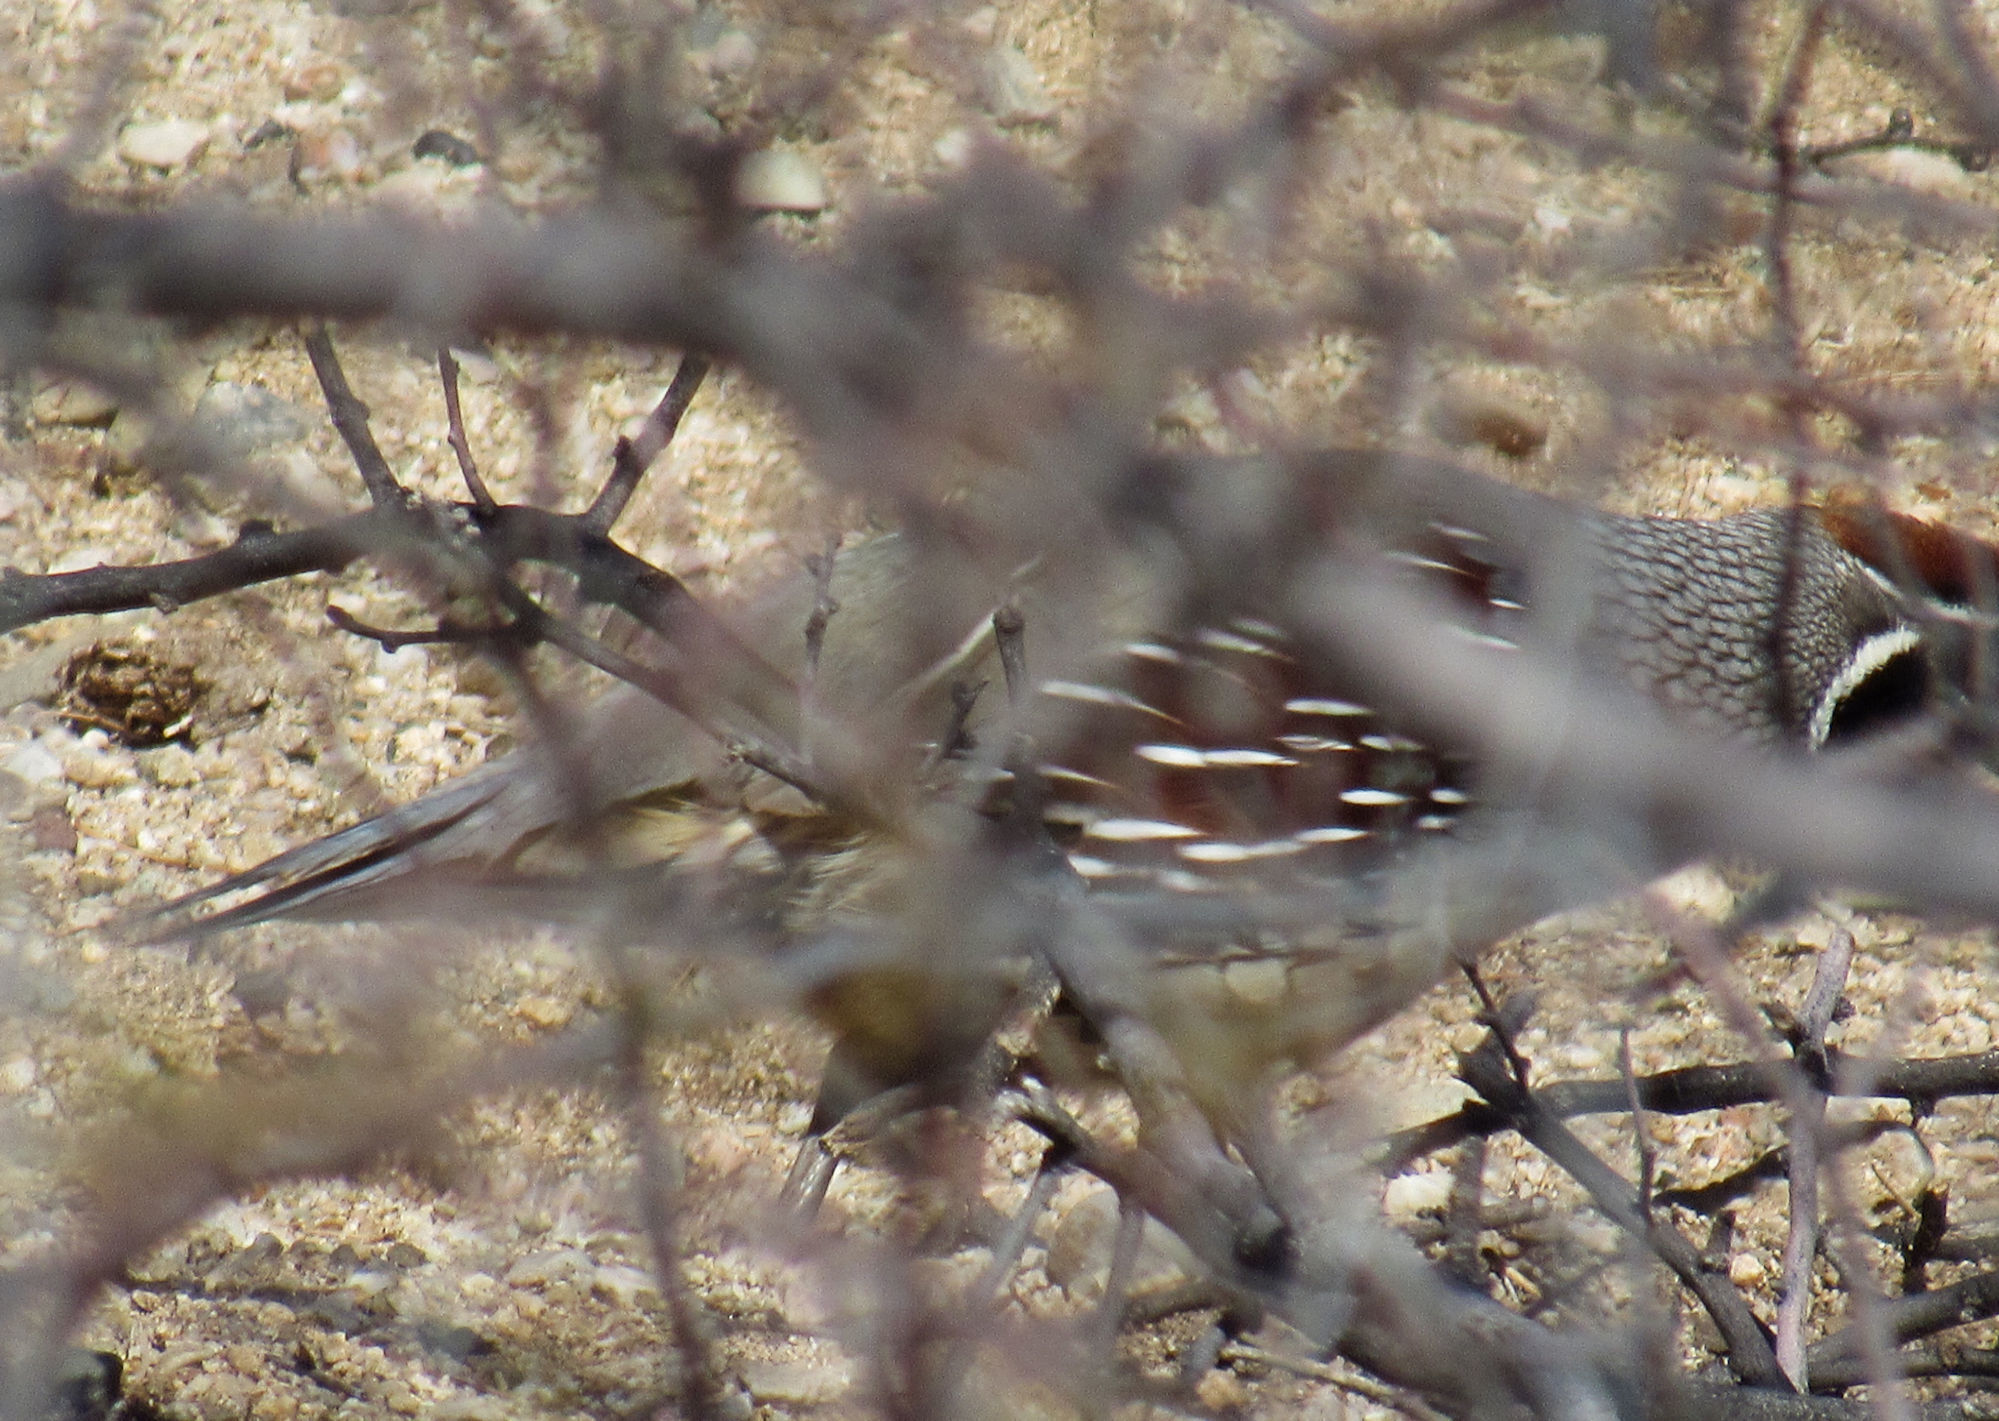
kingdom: Animalia
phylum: Chordata
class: Aves
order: Galliformes
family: Odontophoridae
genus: Callipepla
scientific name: Callipepla gambelii
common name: Gambel's quail
